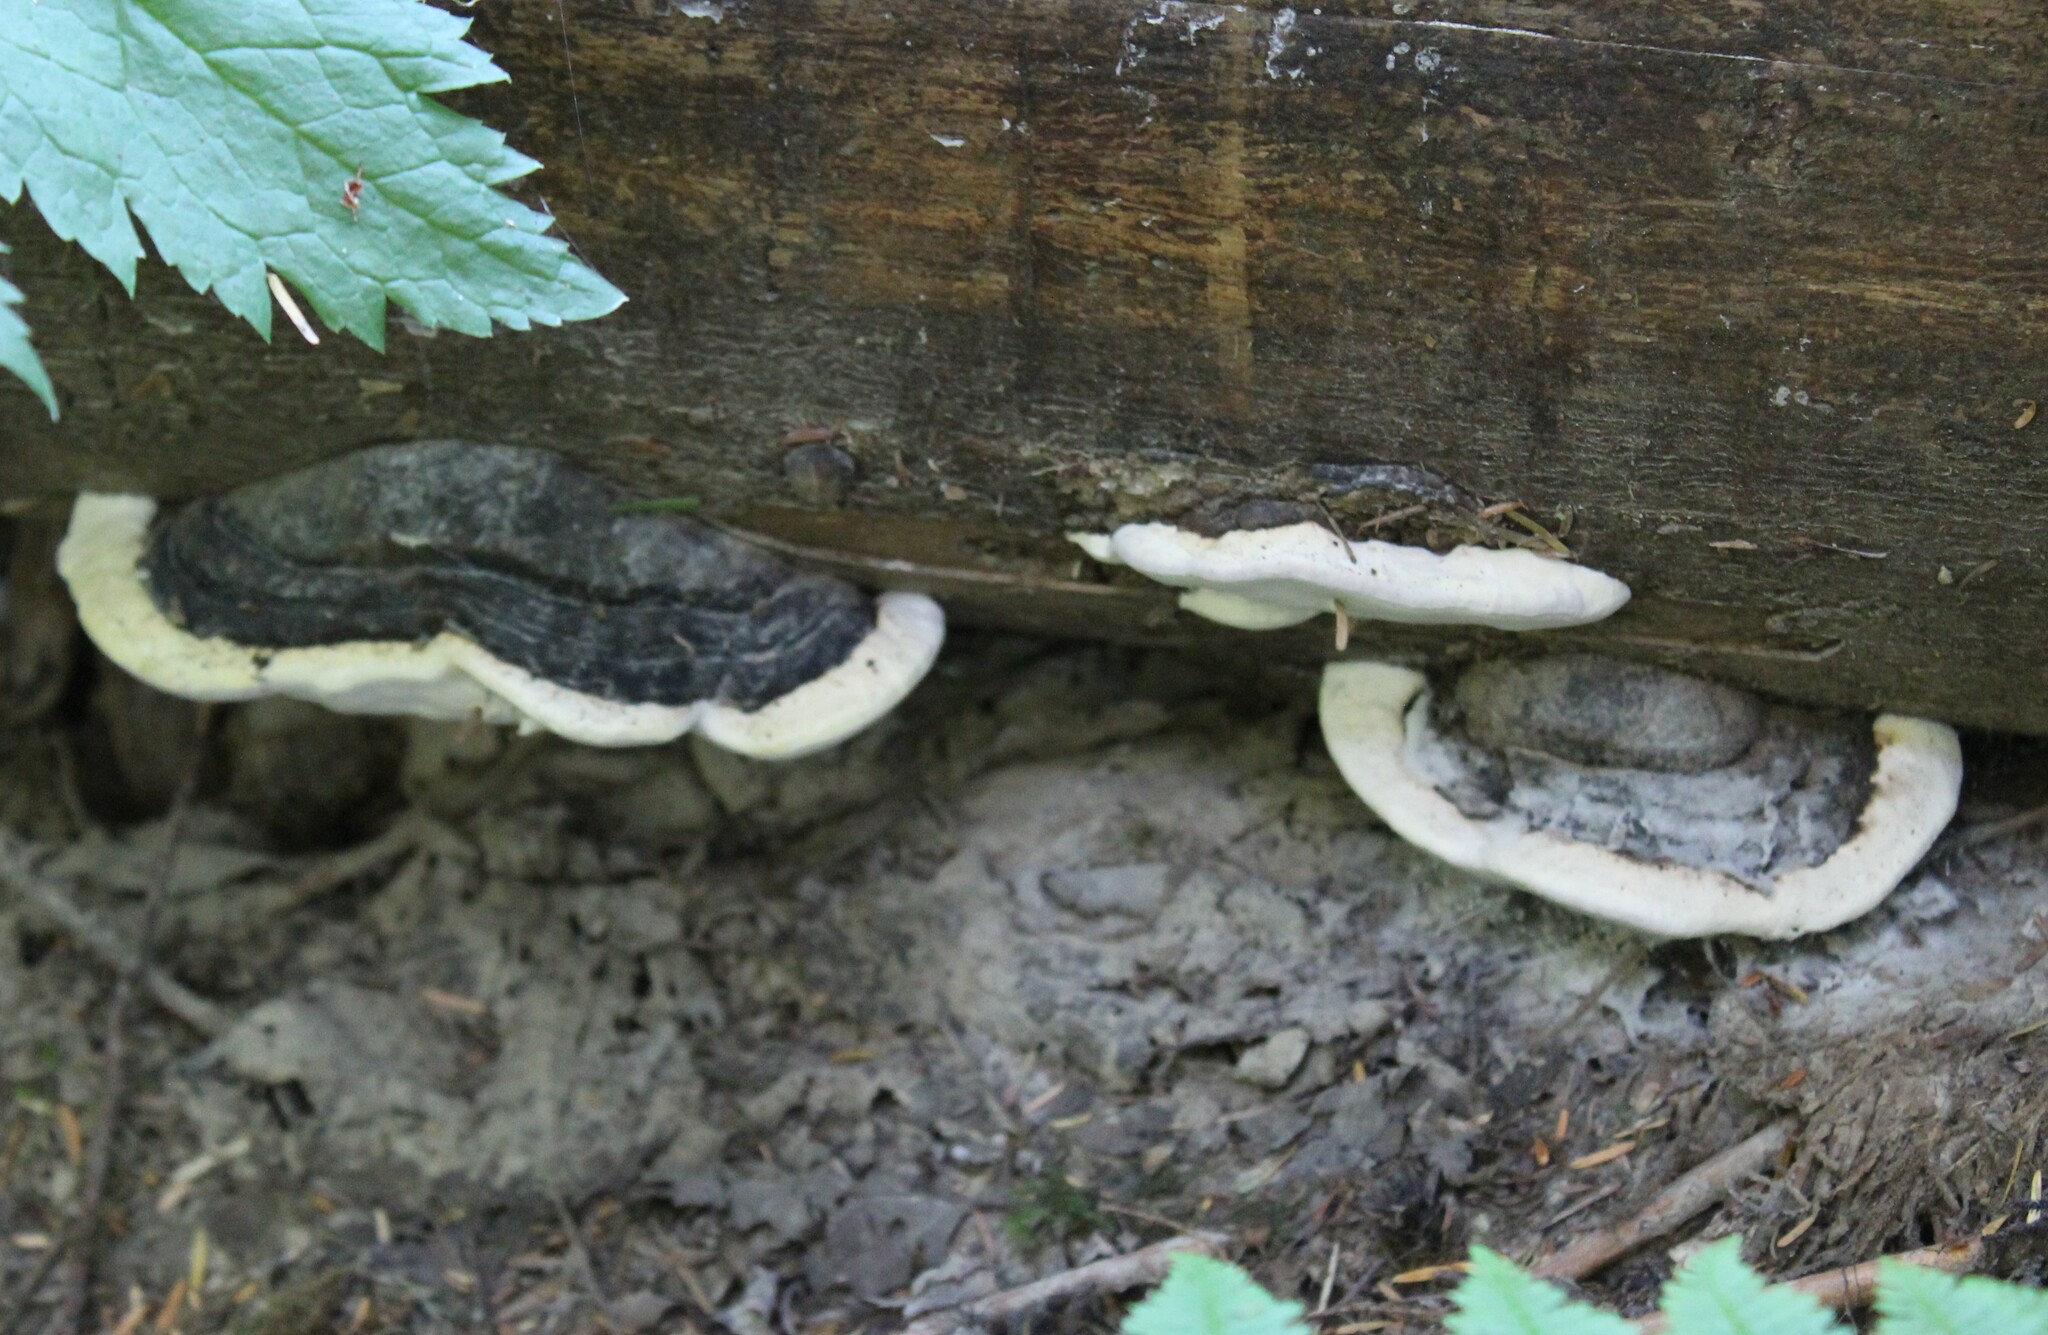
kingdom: Fungi
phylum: Basidiomycota
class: Agaricomycetes
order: Polyporales
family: Fomitopsidaceae
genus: Fomitopsis
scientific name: Fomitopsis ochracea
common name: American brown fomitopsis
